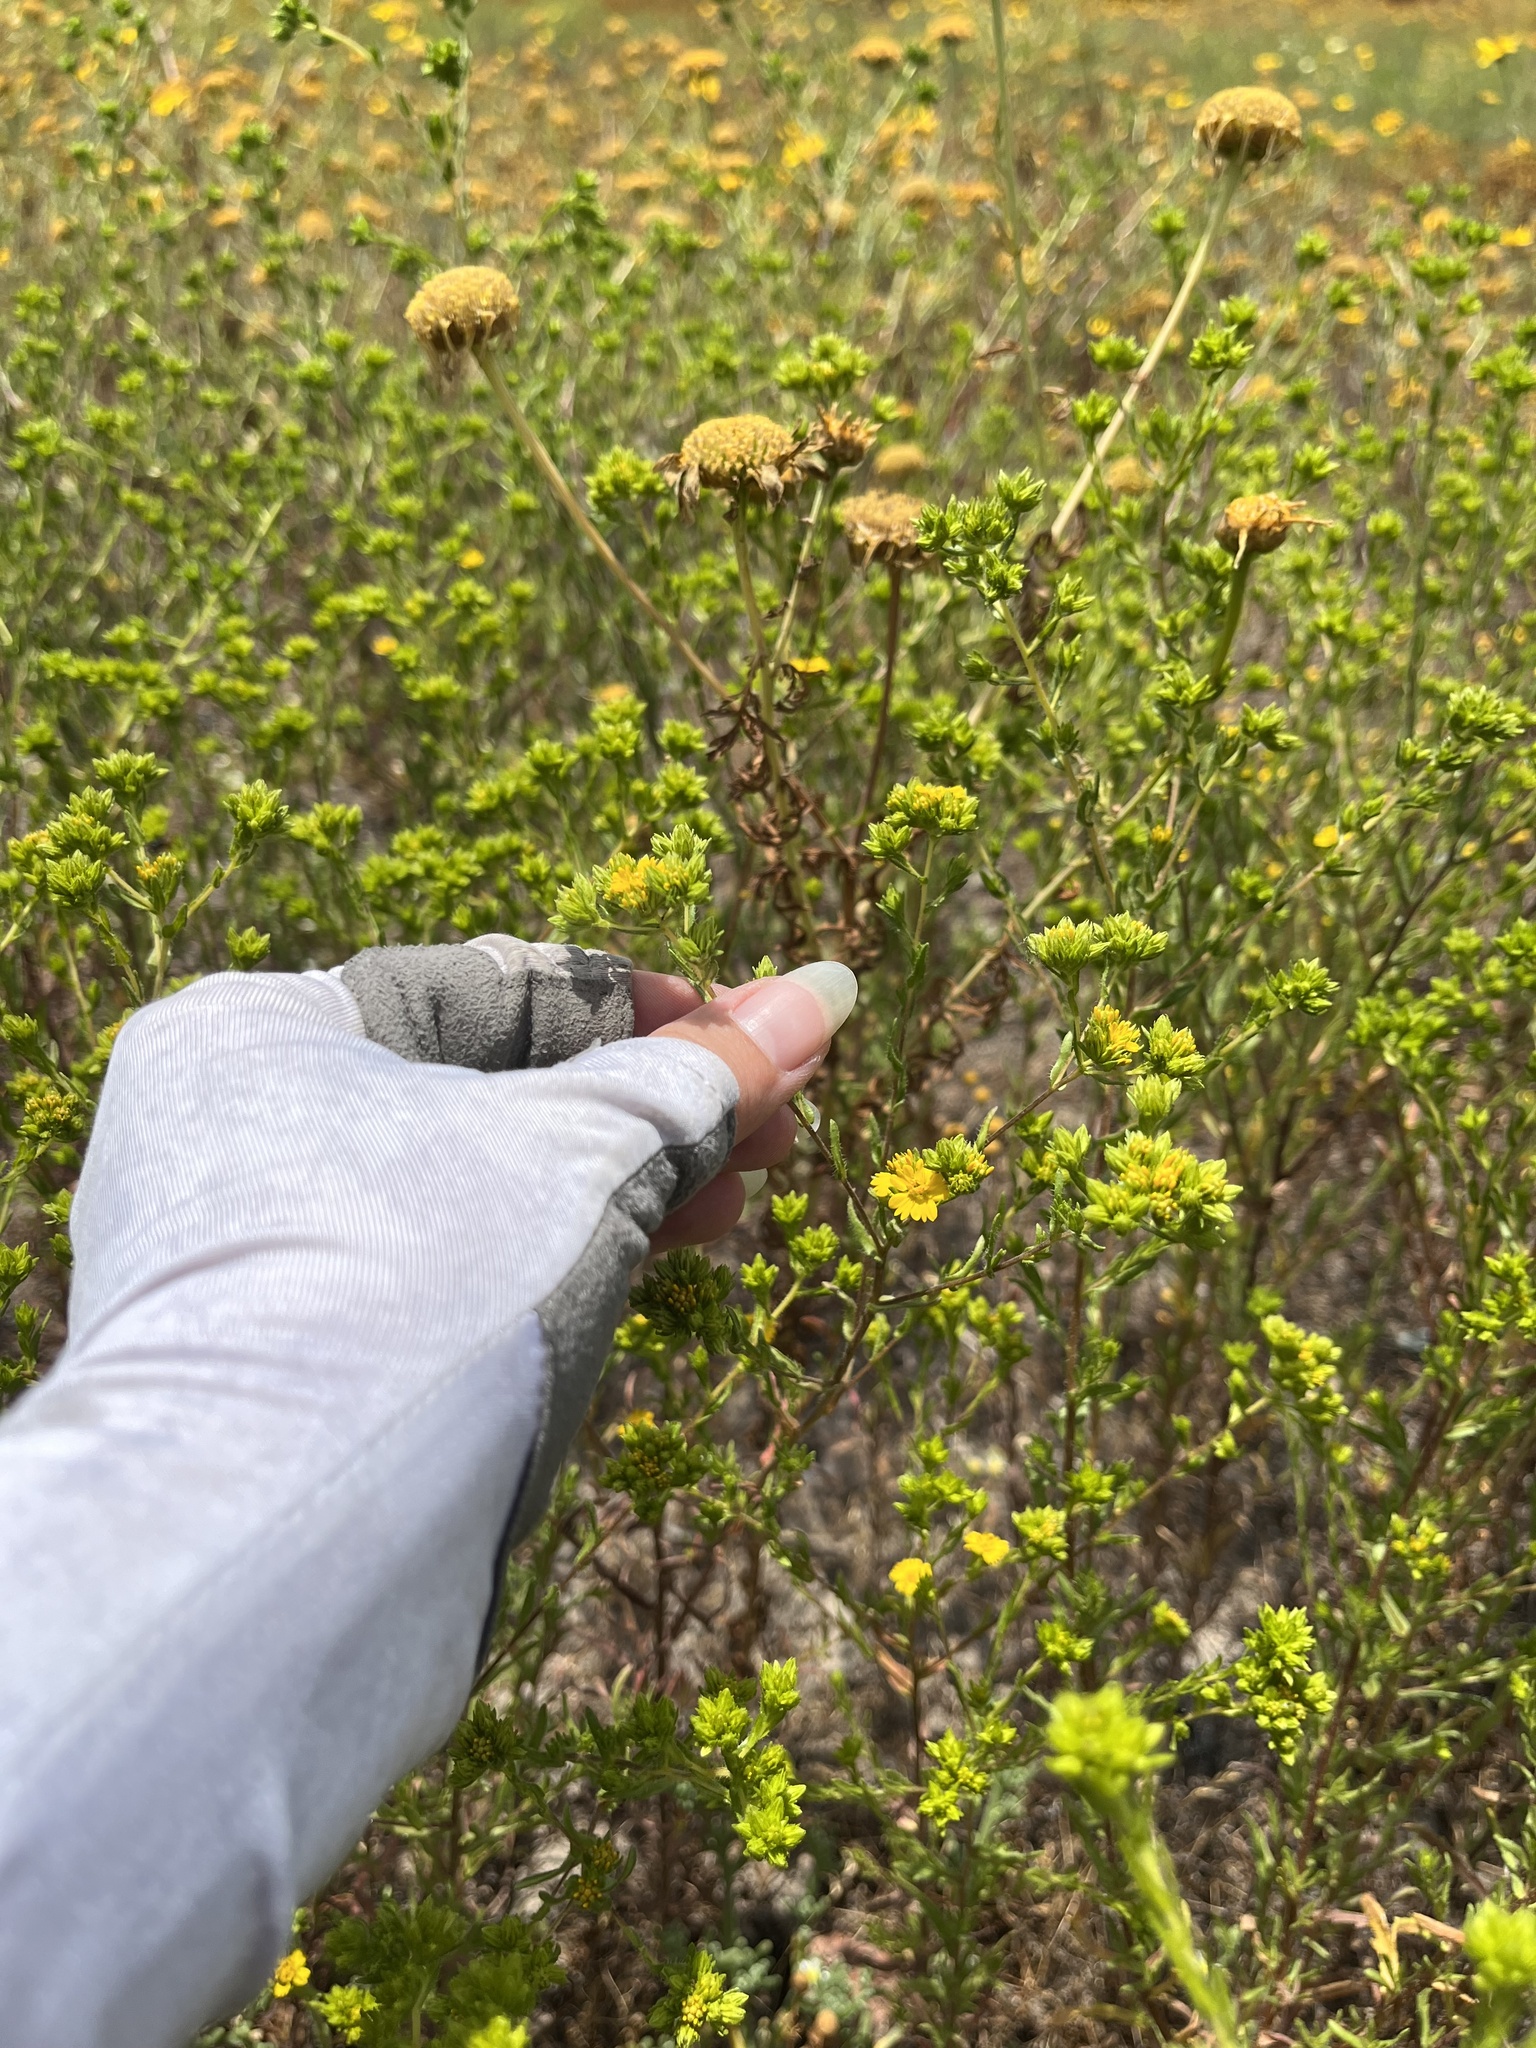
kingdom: Plantae
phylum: Tracheophyta
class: Magnoliopsida
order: Asterales
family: Asteraceae
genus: Deinandra
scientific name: Deinandra fasciculata
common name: Clustered tarweed
